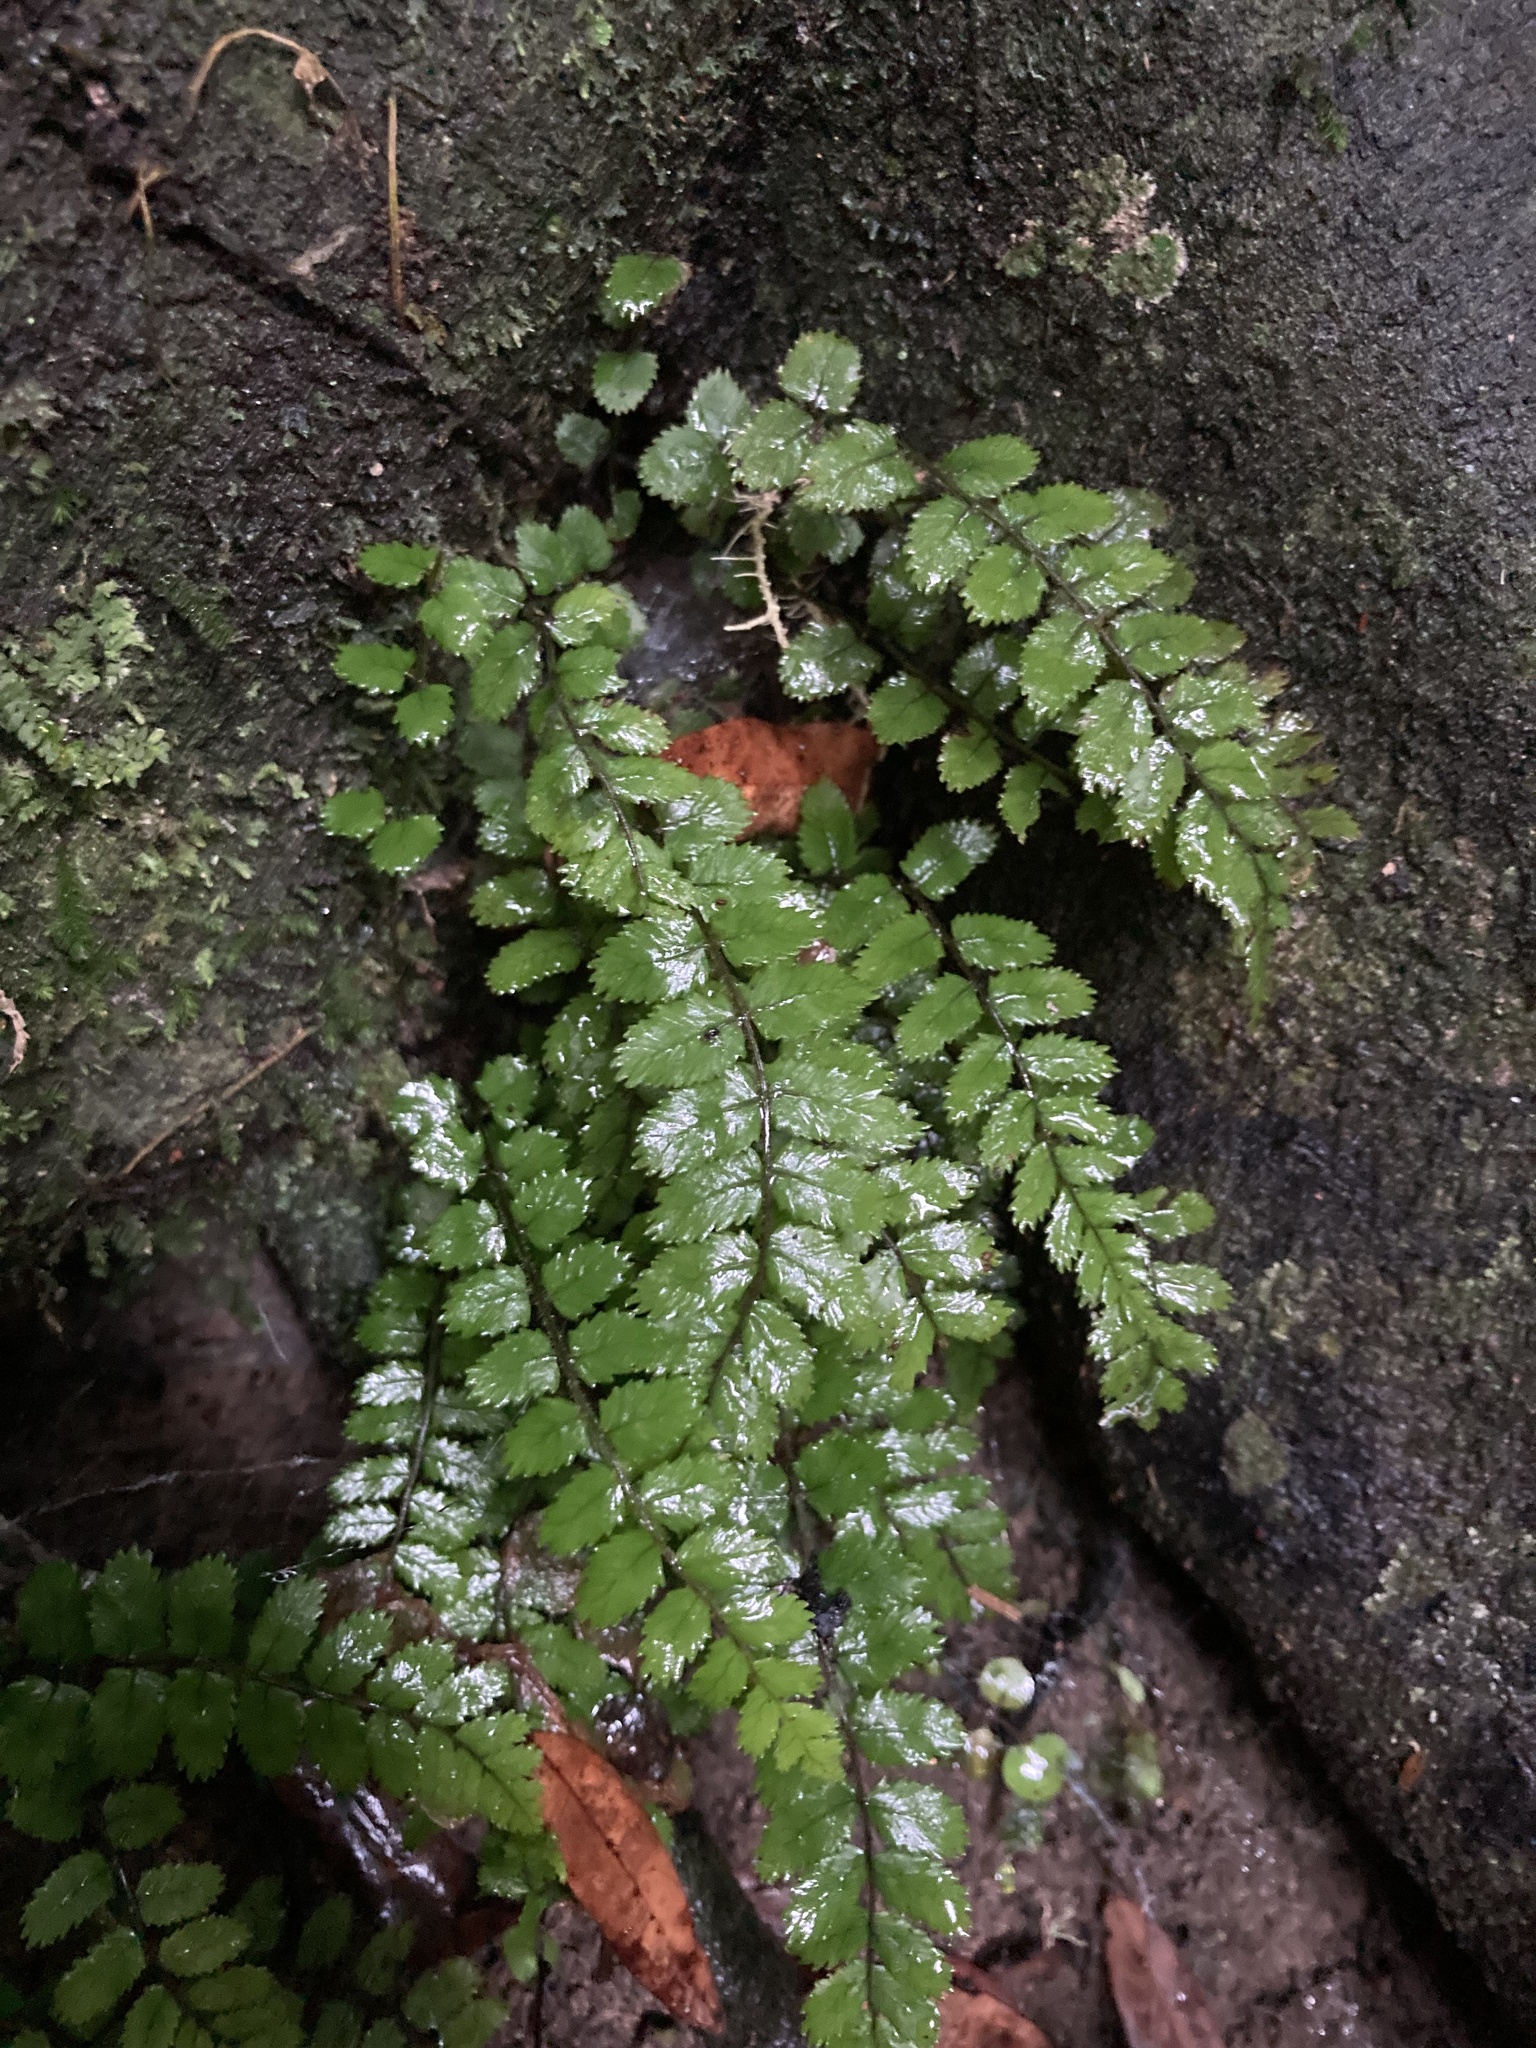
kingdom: Plantae
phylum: Tracheophyta
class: Polypodiopsida
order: Polypodiales
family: Blechnaceae
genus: Icarus
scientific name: Icarus filiformis
